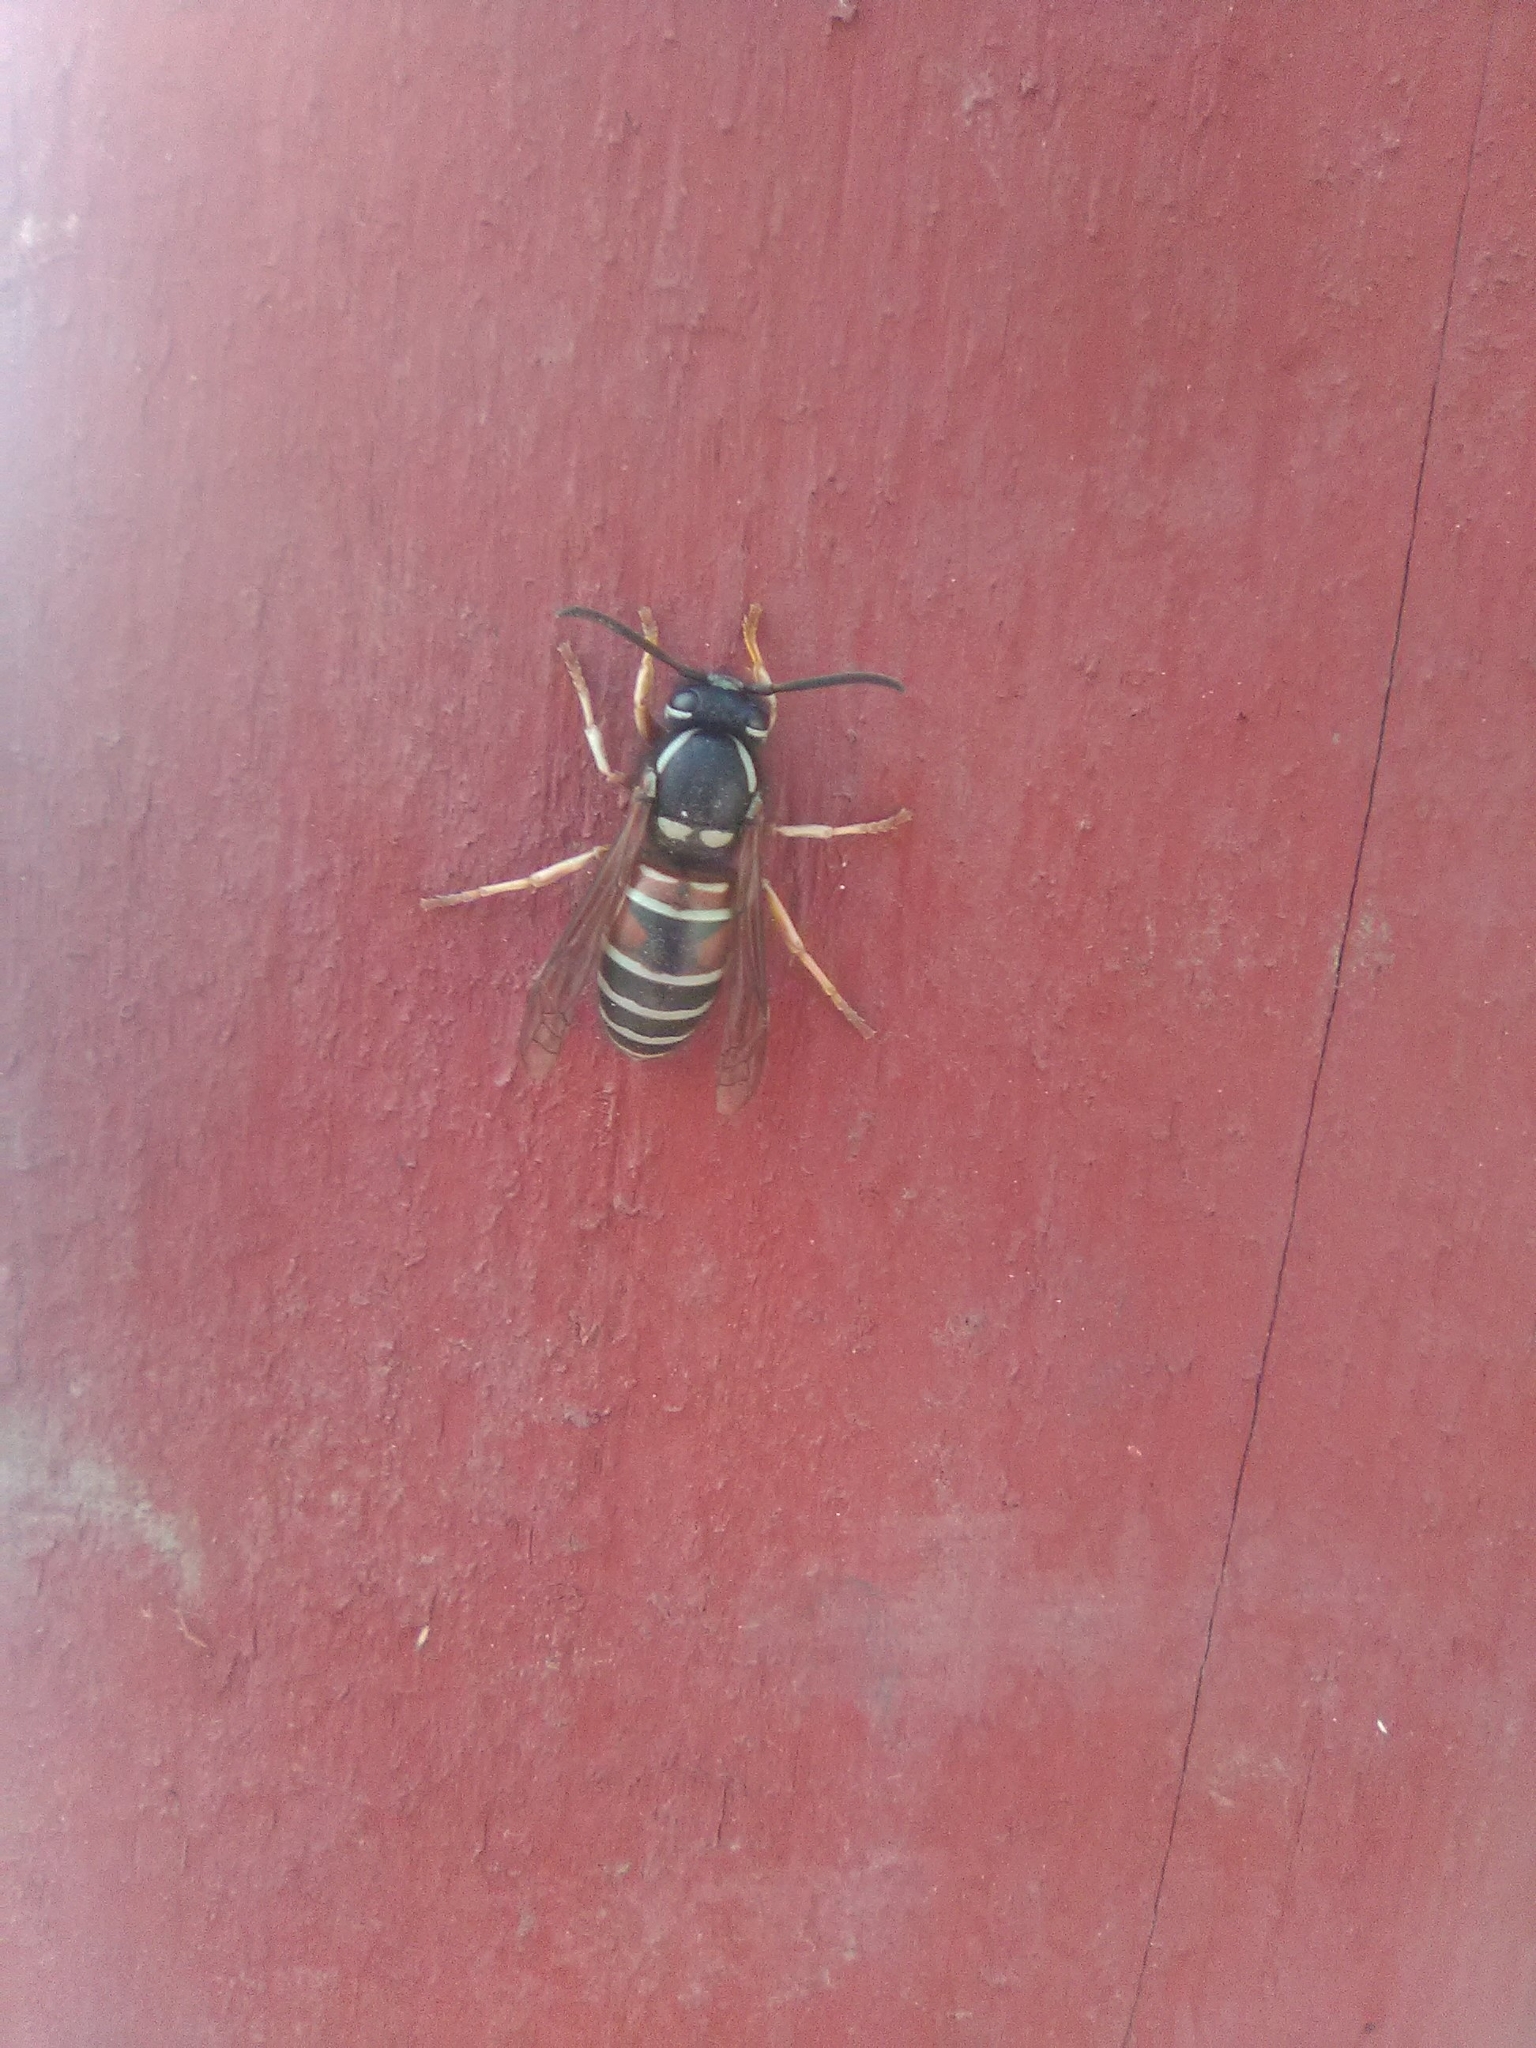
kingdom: Animalia
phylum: Arthropoda
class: Insecta
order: Hymenoptera
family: Vespidae
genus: Vespula
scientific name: Vespula intermedia
